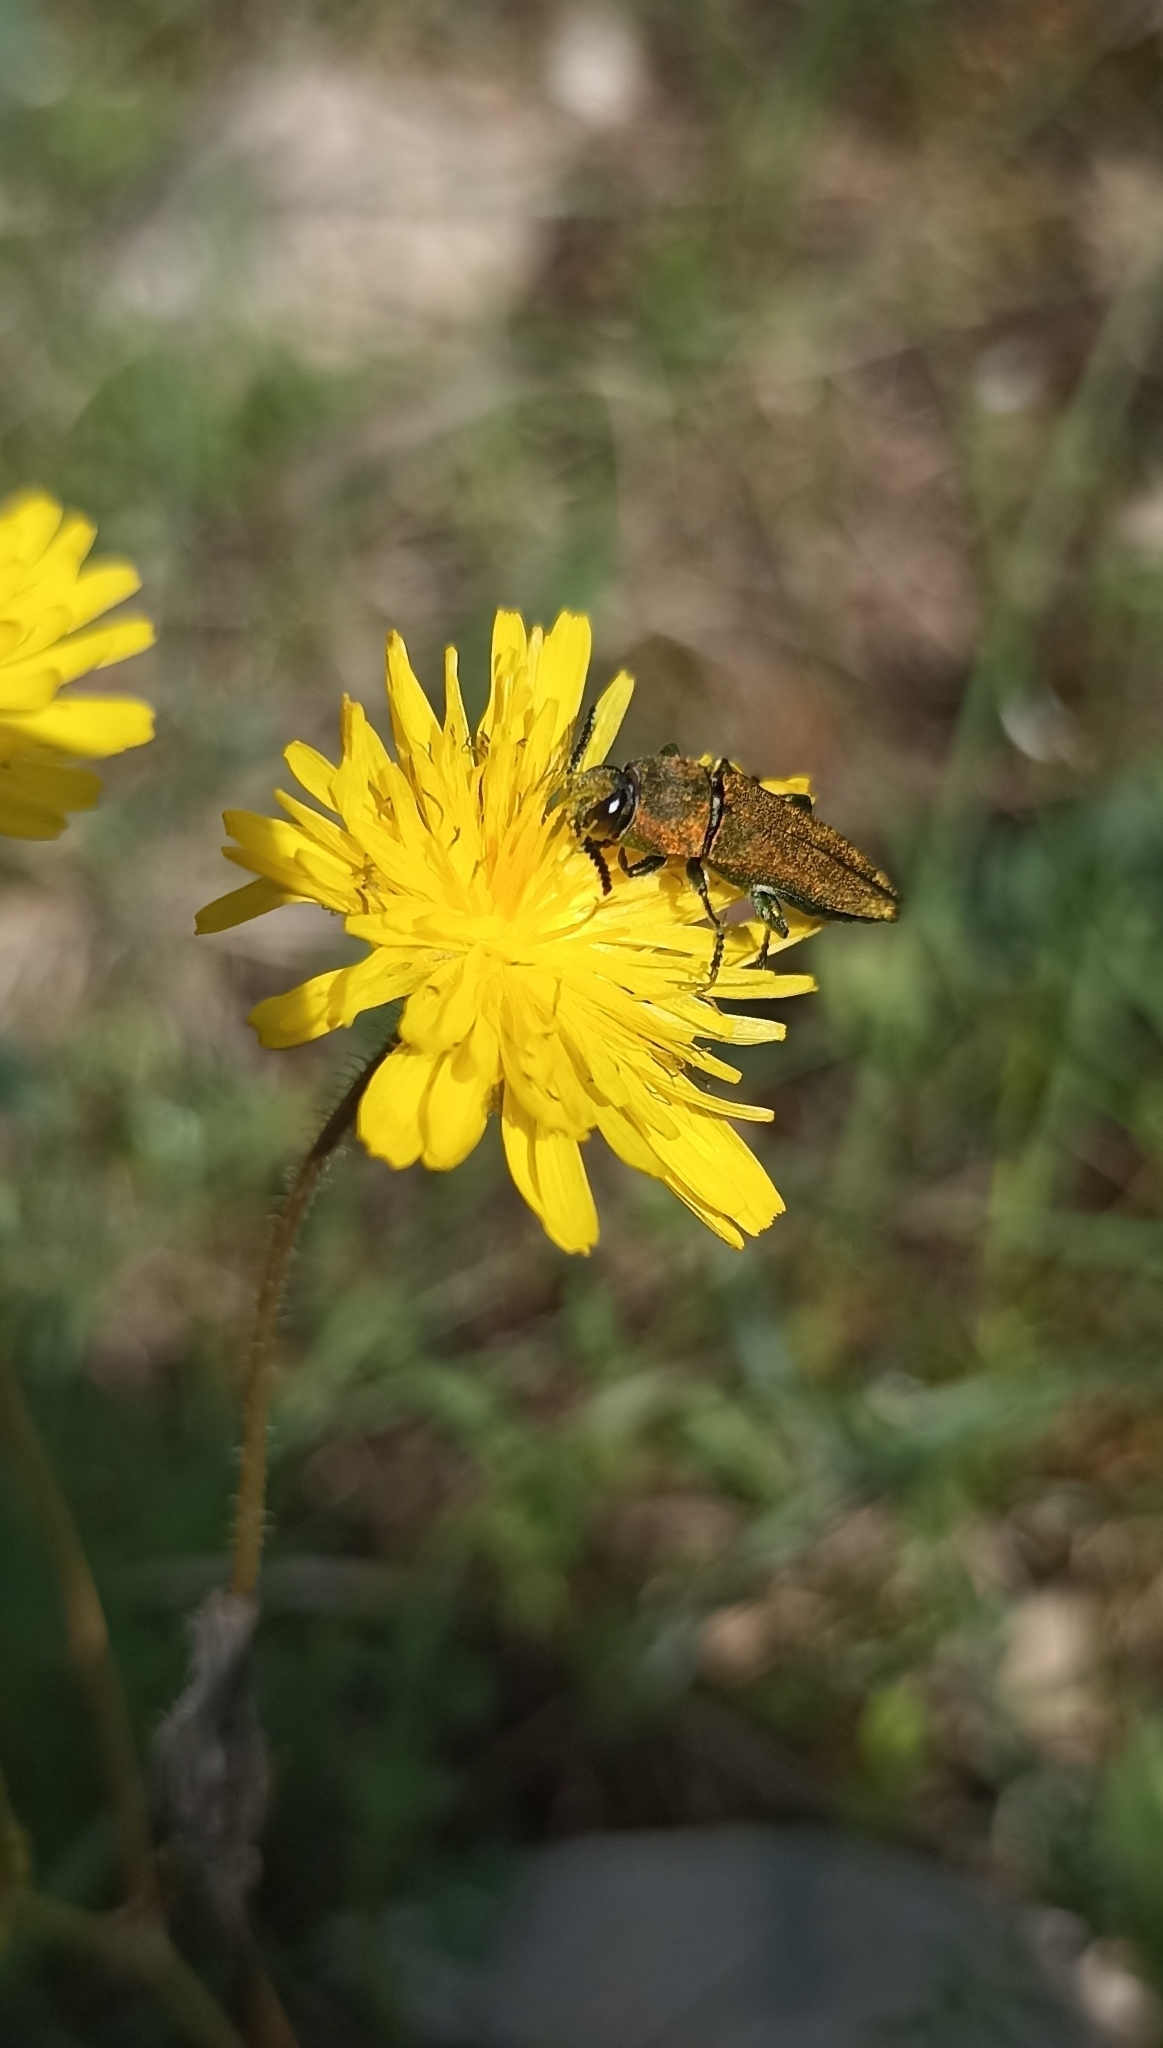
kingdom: Animalia
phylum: Arthropoda
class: Insecta
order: Coleoptera
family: Buprestidae
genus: Anthaxia
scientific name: Anthaxia hungarica
